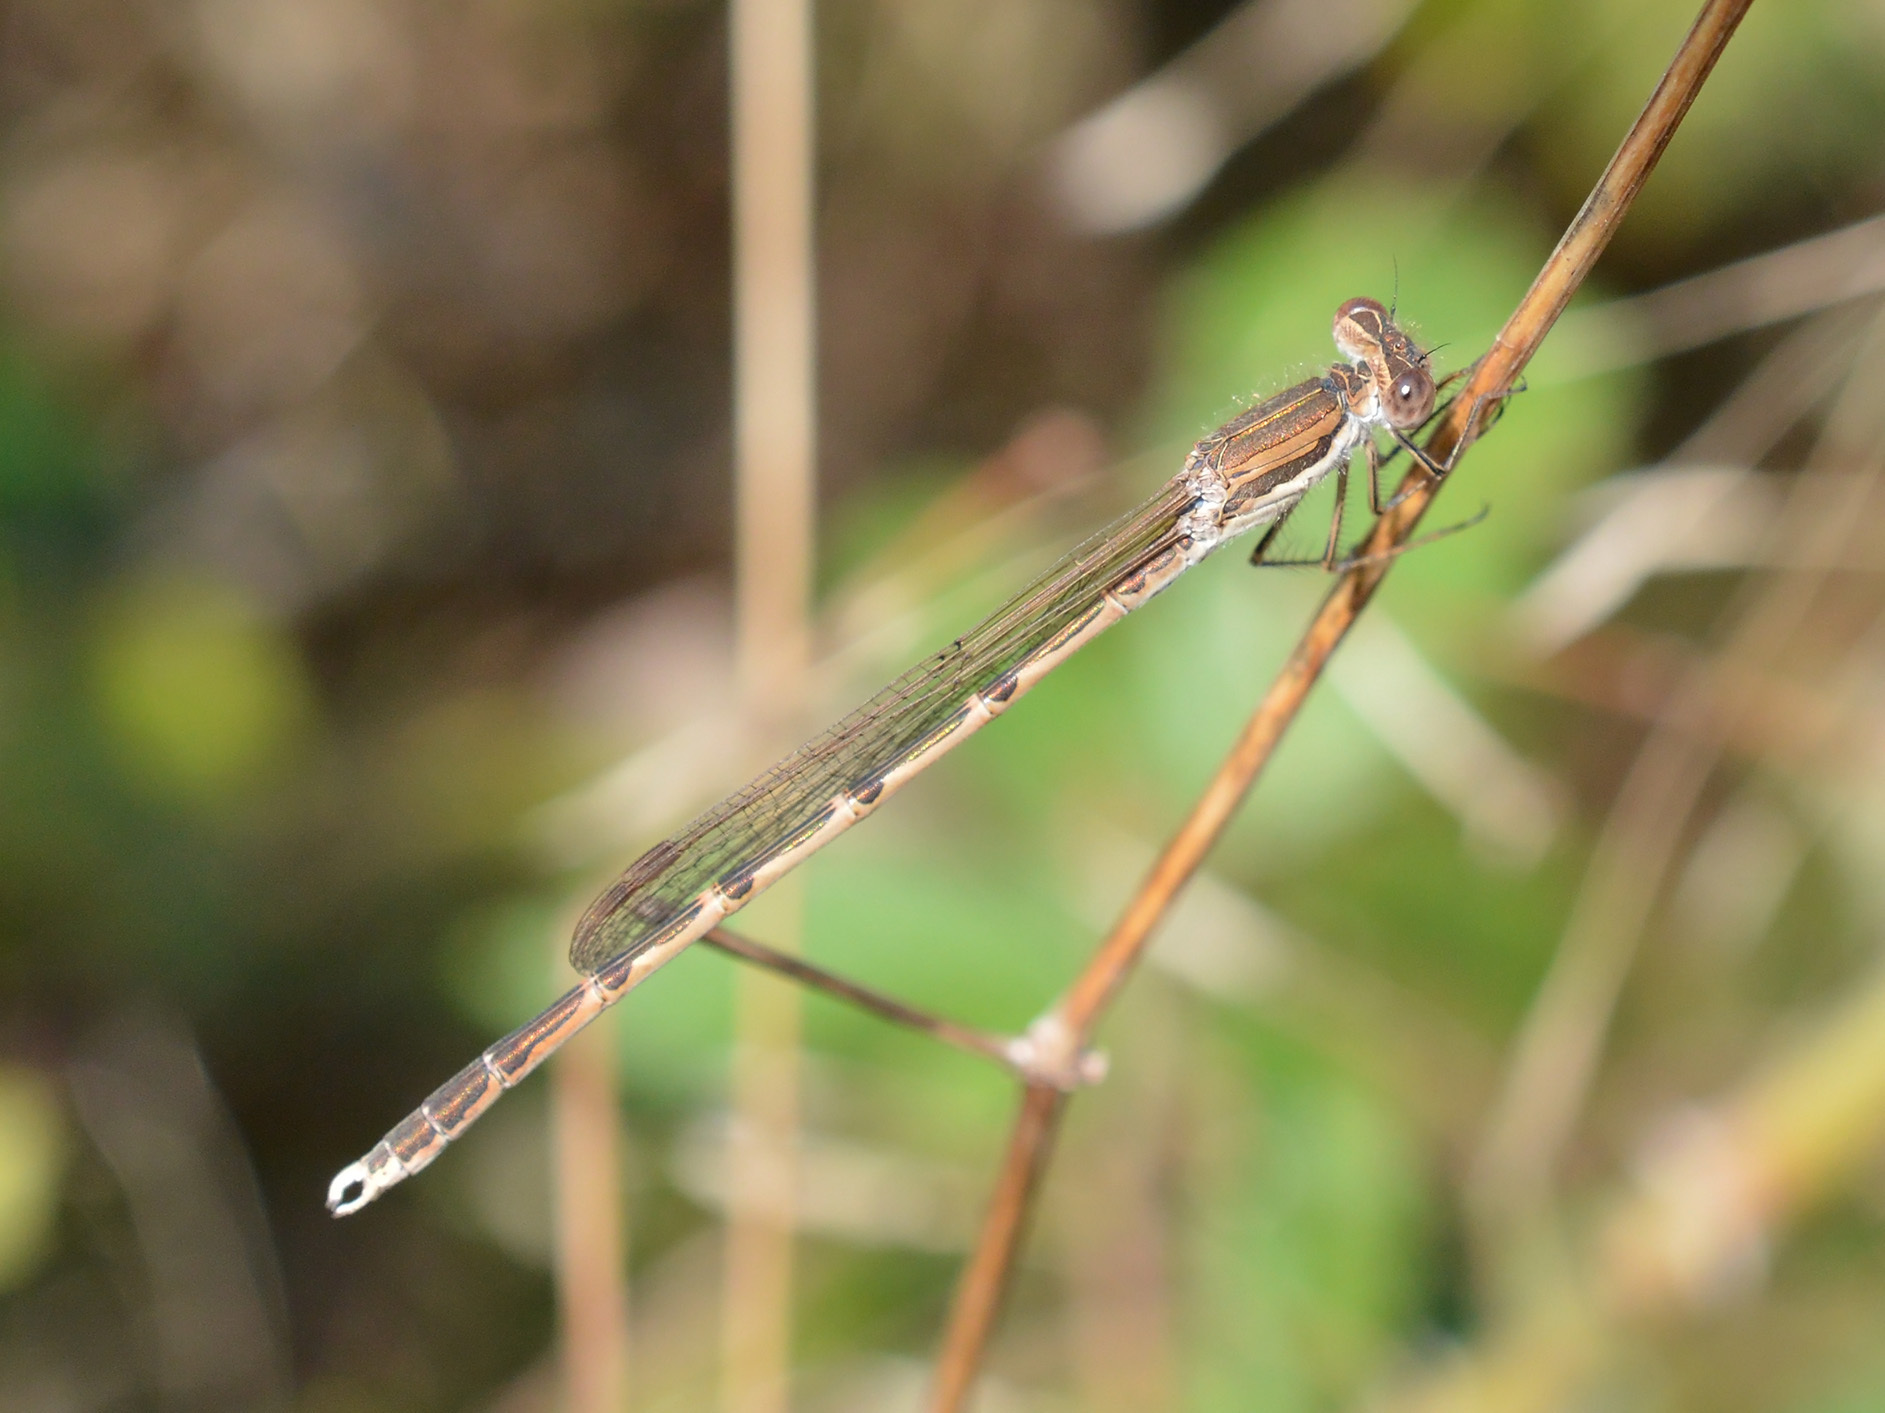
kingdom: Animalia
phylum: Arthropoda
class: Insecta
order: Odonata
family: Lestidae
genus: Sympecma
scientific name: Sympecma fusca
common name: Common winter damsel
